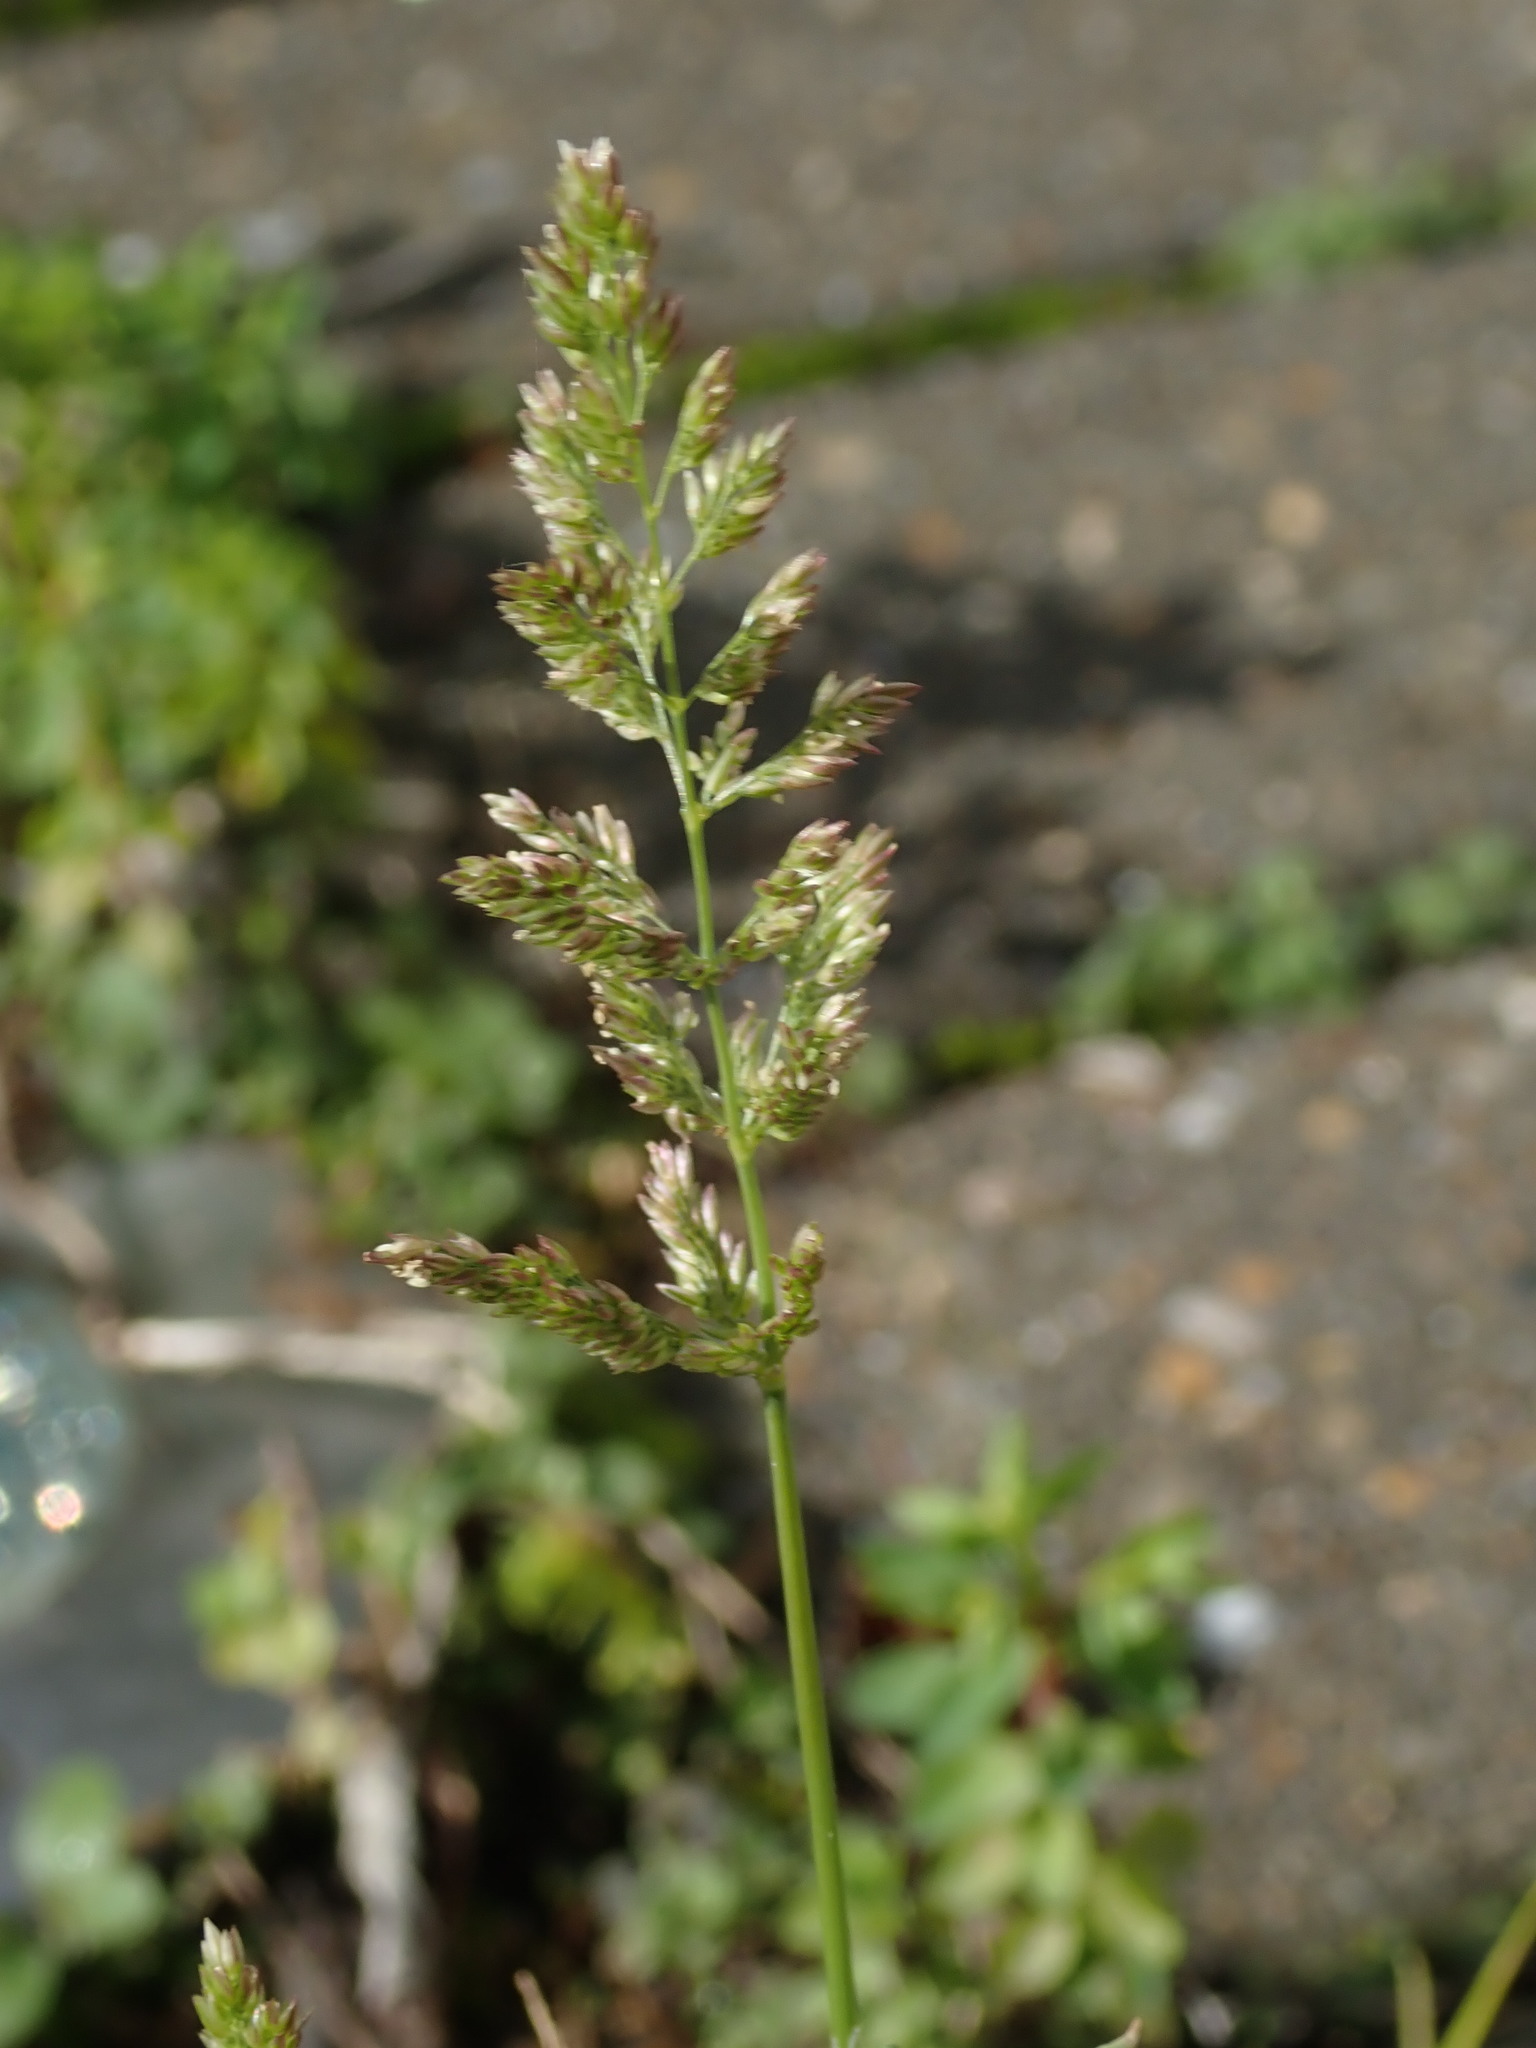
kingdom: Plantae
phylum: Tracheophyta
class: Liliopsida
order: Poales
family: Poaceae
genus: Polypogon
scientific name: Polypogon viridis
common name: Water bent
